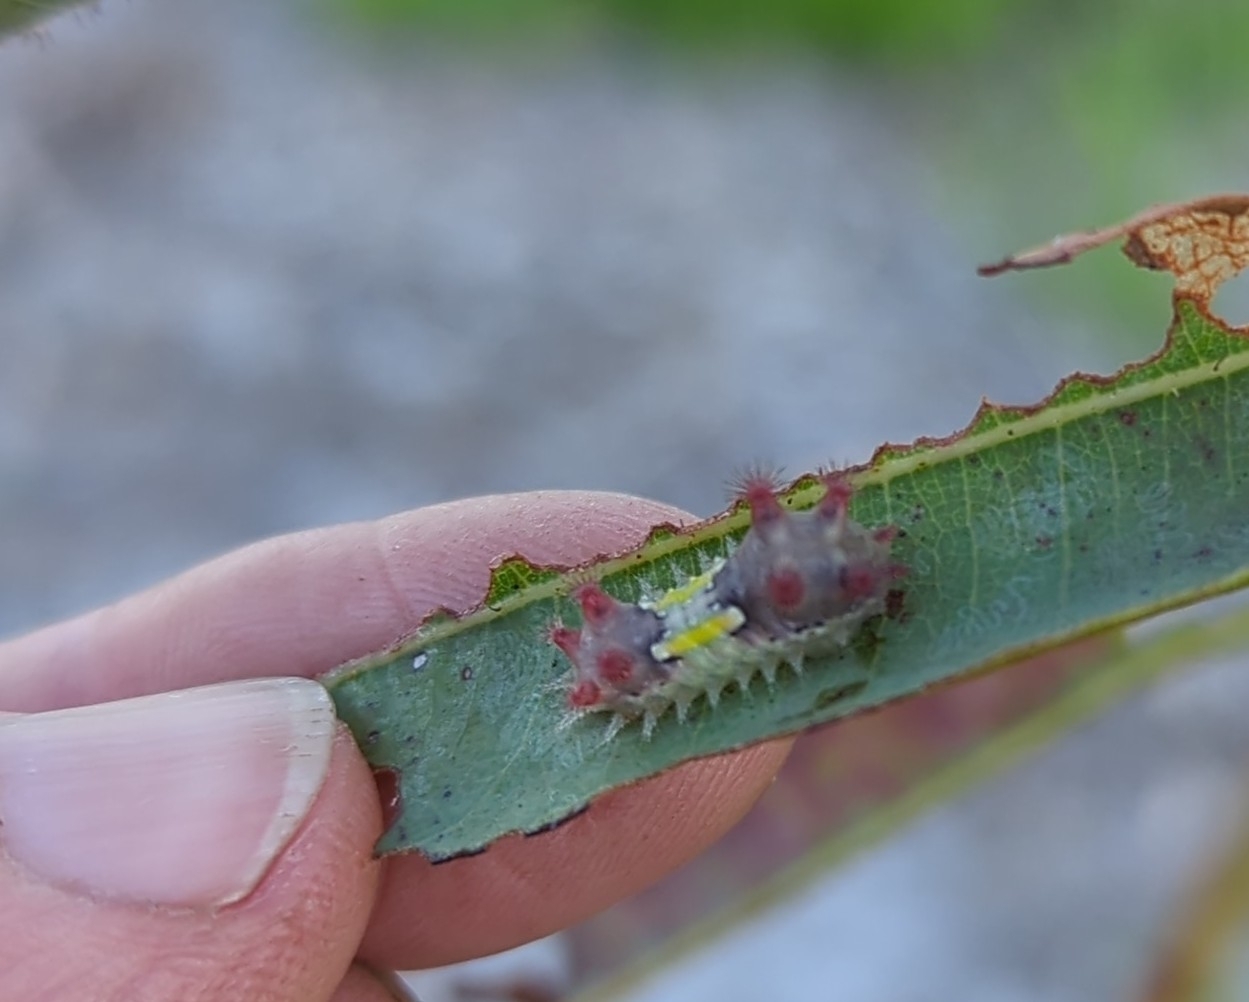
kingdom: Animalia
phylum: Arthropoda
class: Insecta
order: Lepidoptera
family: Limacodidae
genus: Doratifera
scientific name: Doratifera vulnerans
